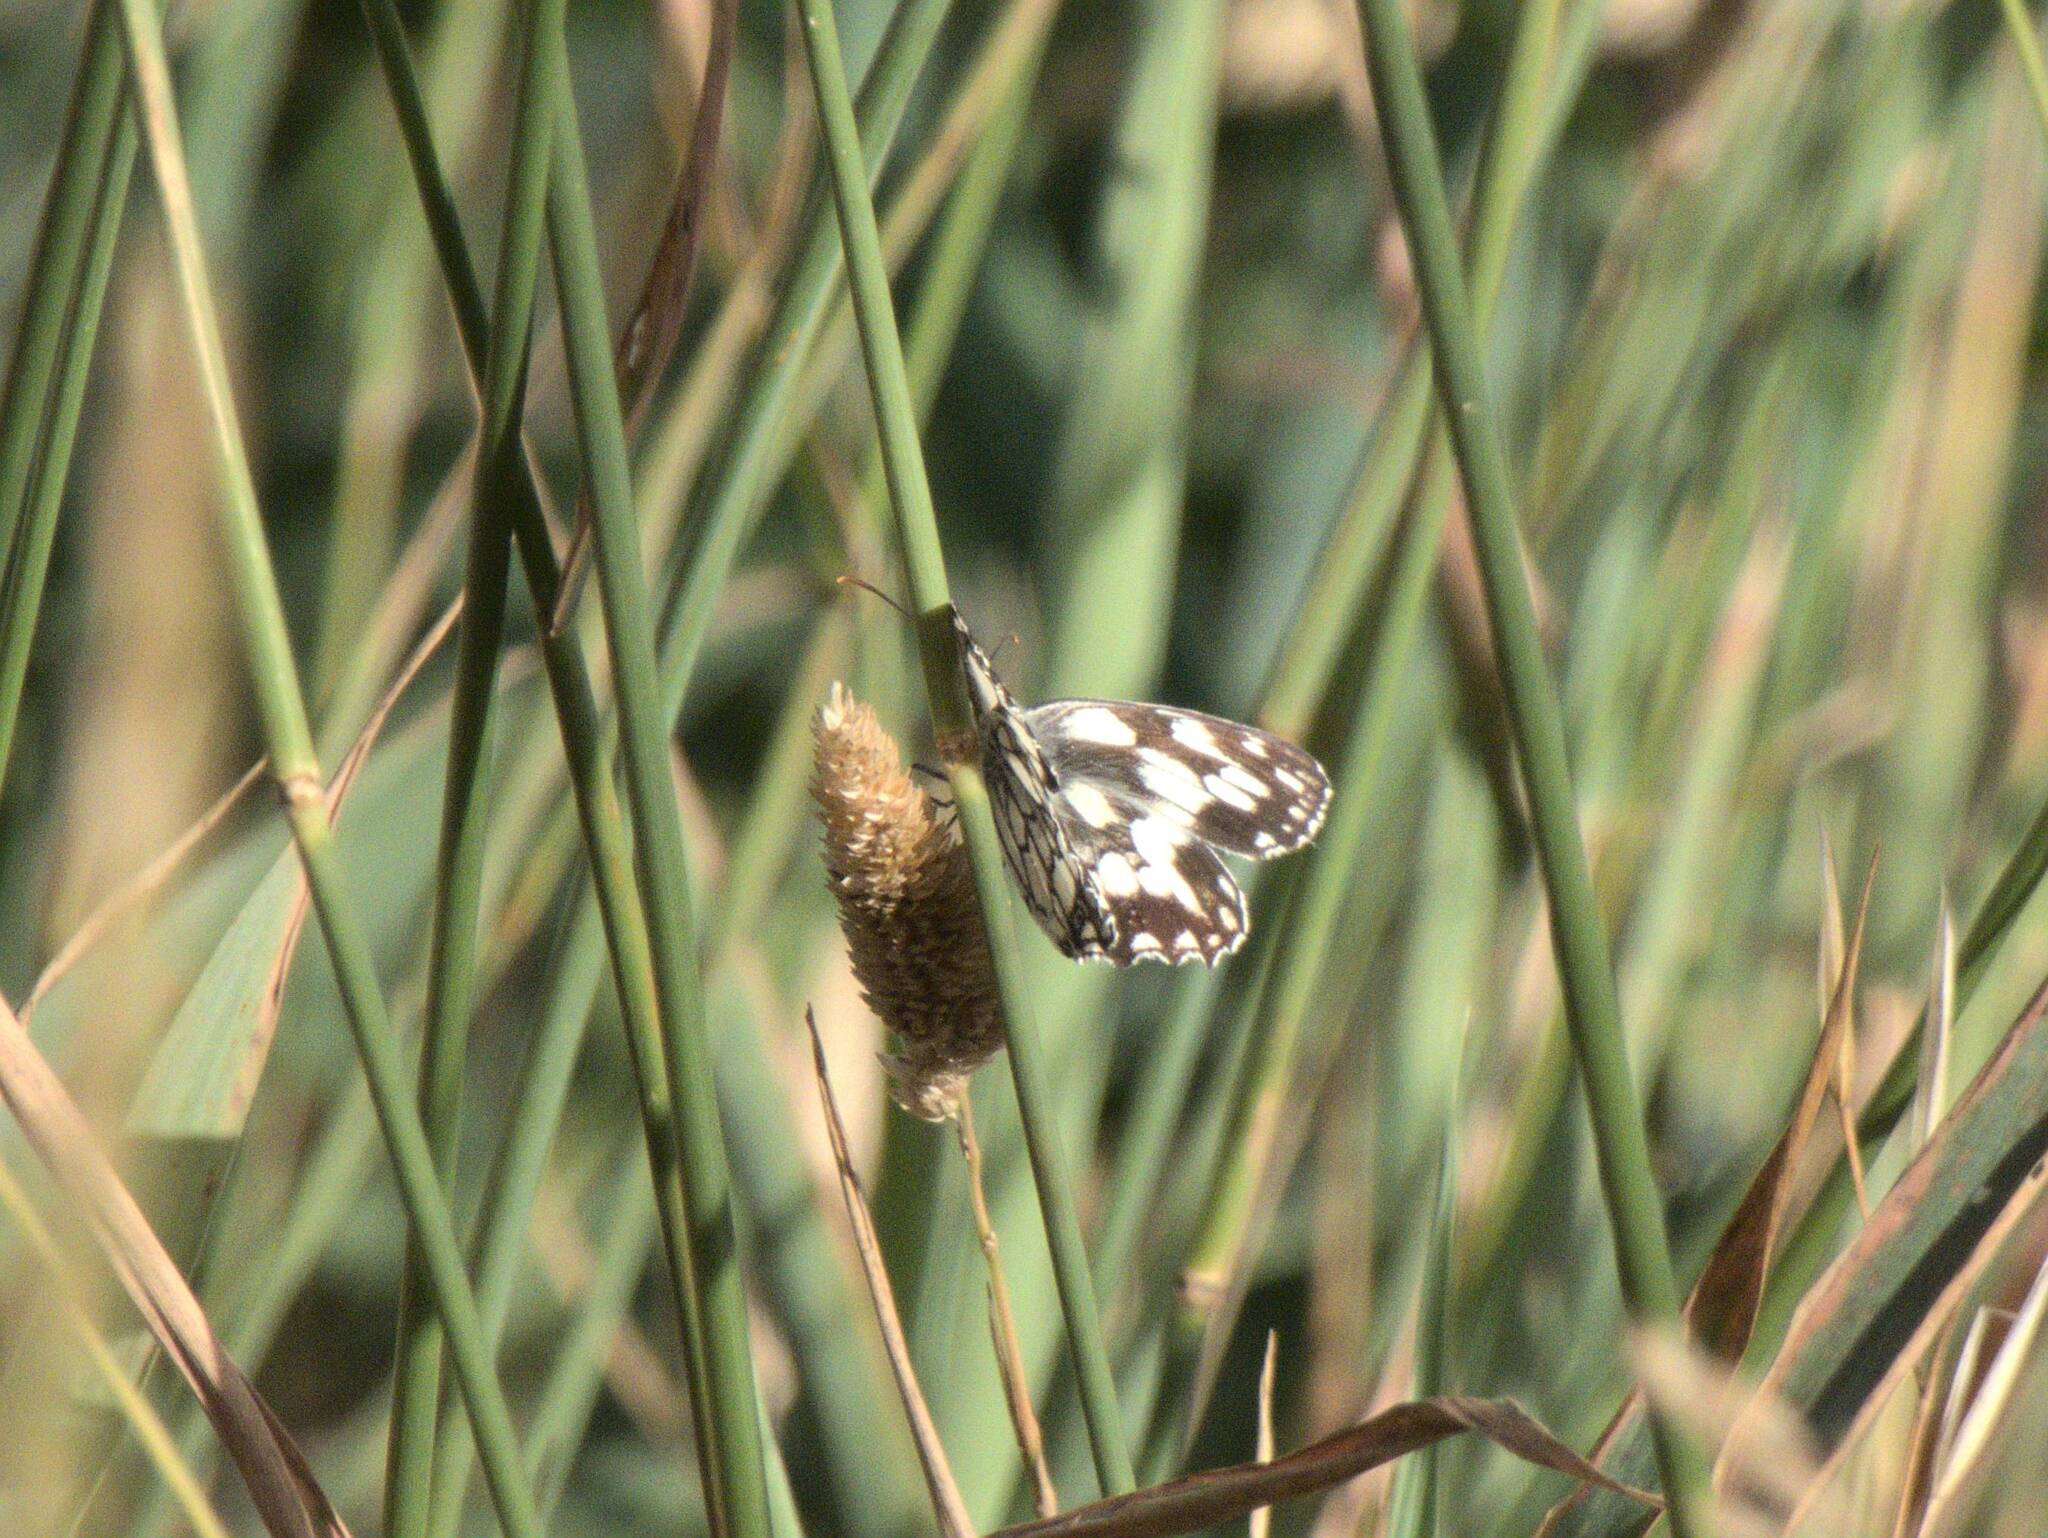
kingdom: Animalia
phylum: Arthropoda
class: Insecta
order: Lepidoptera
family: Nymphalidae
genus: Melanargia
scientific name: Melanargia galathea
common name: Marbled white
